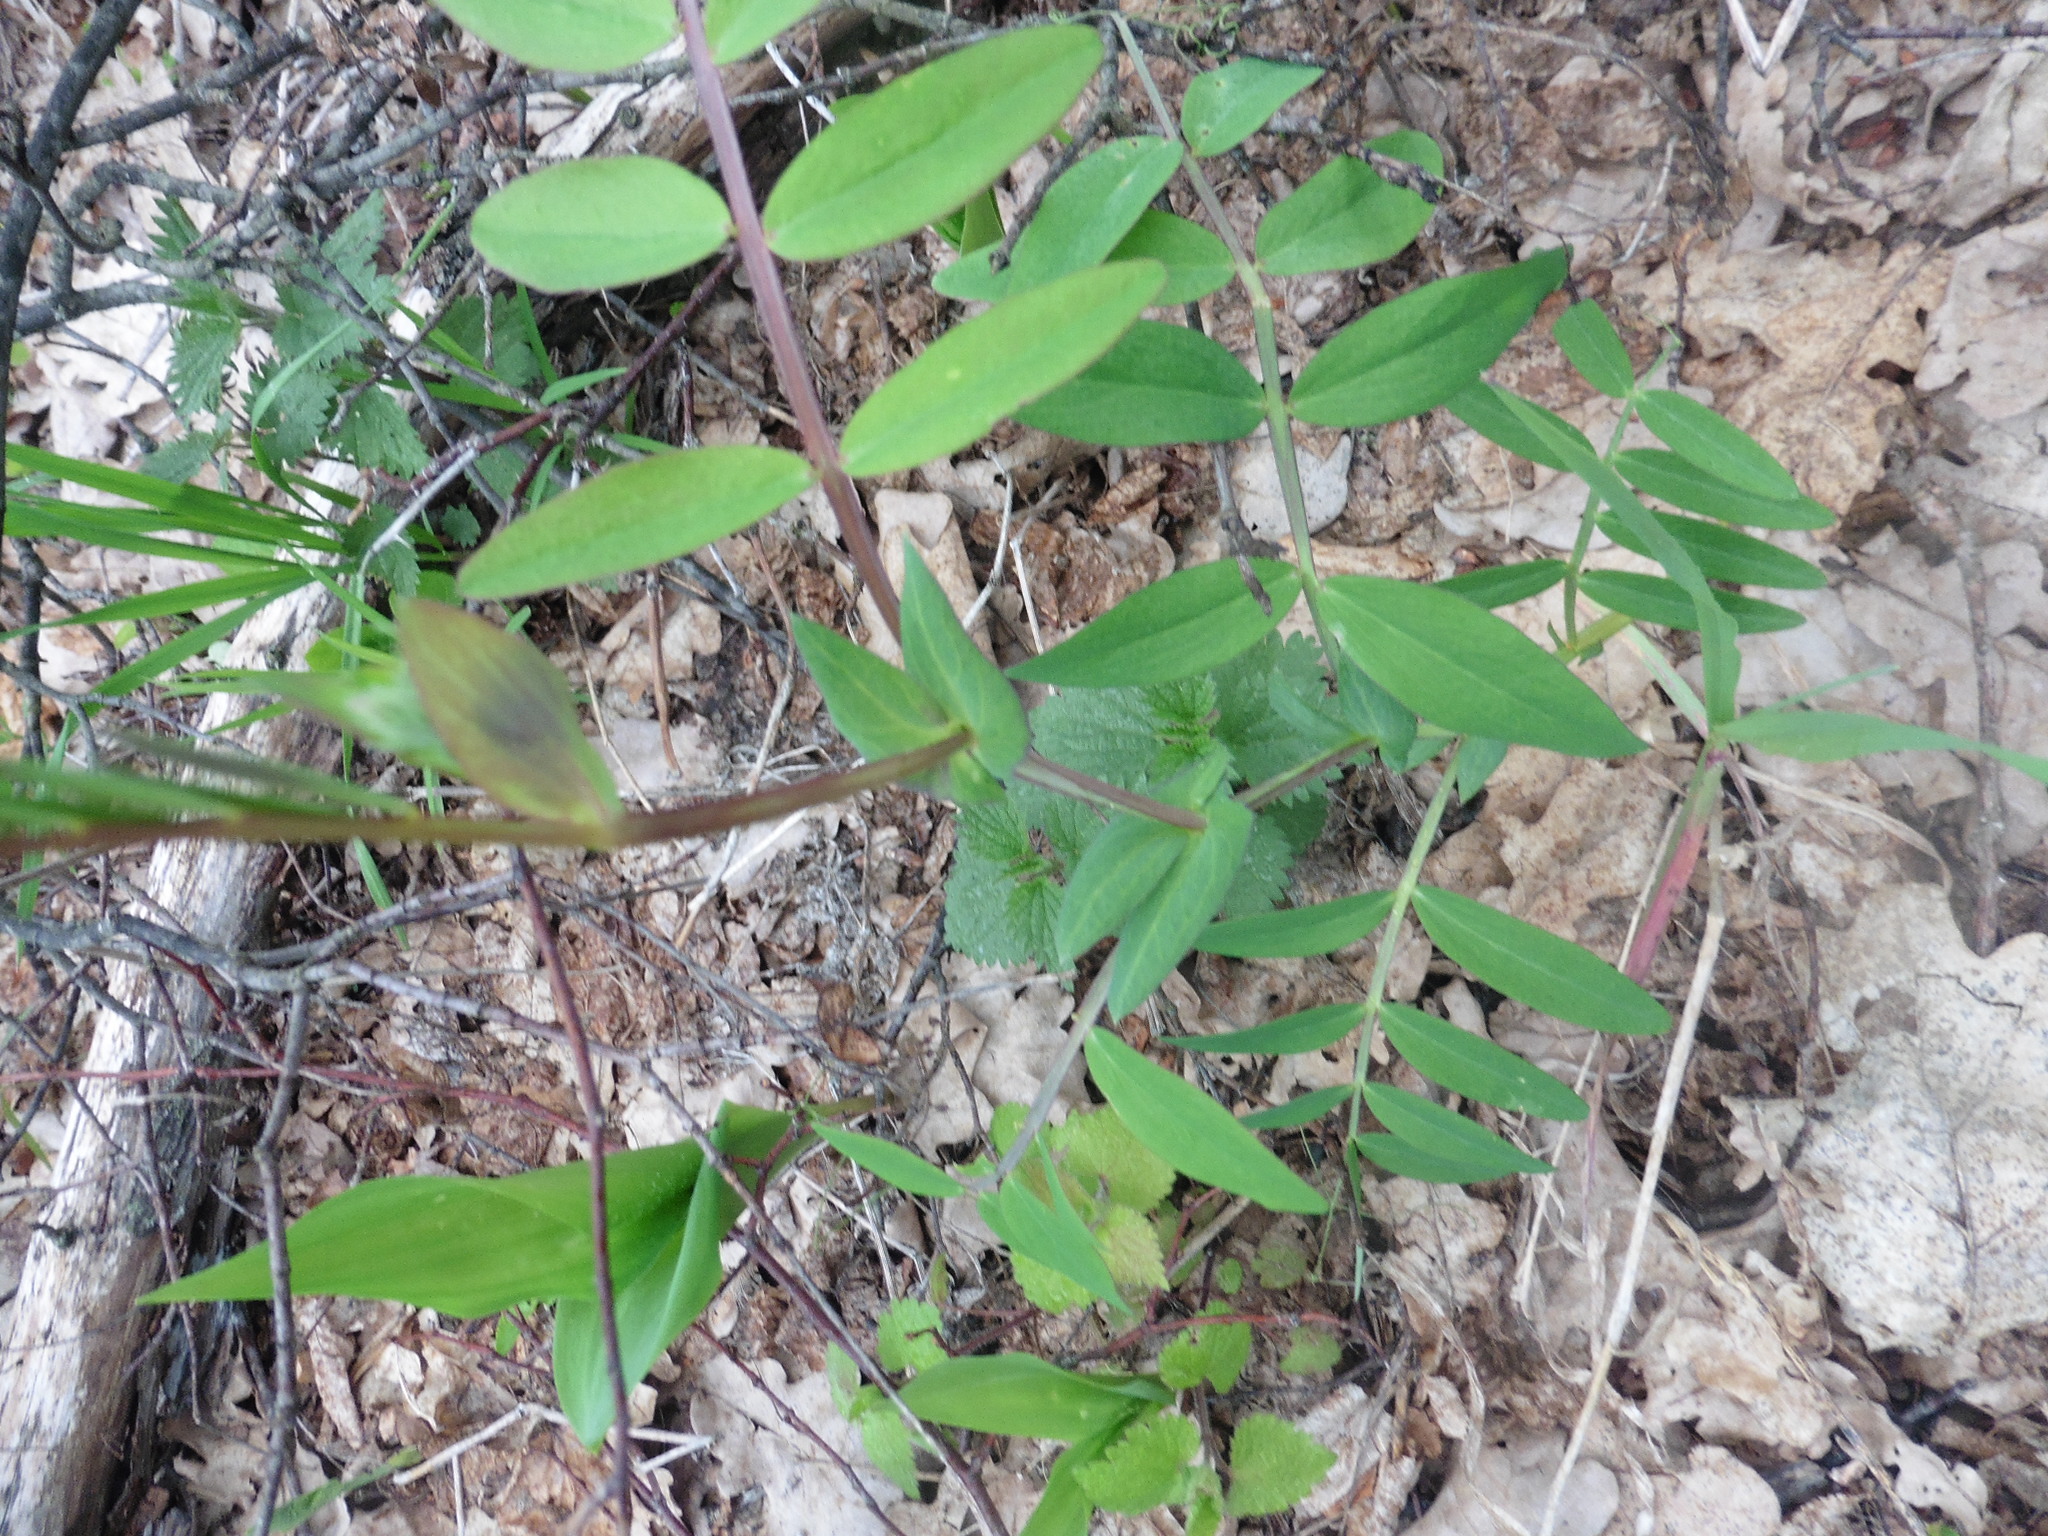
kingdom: Plantae
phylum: Tracheophyta
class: Magnoliopsida
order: Fabales
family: Fabaceae
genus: Lathyrus
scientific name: Lathyrus pisiformis
